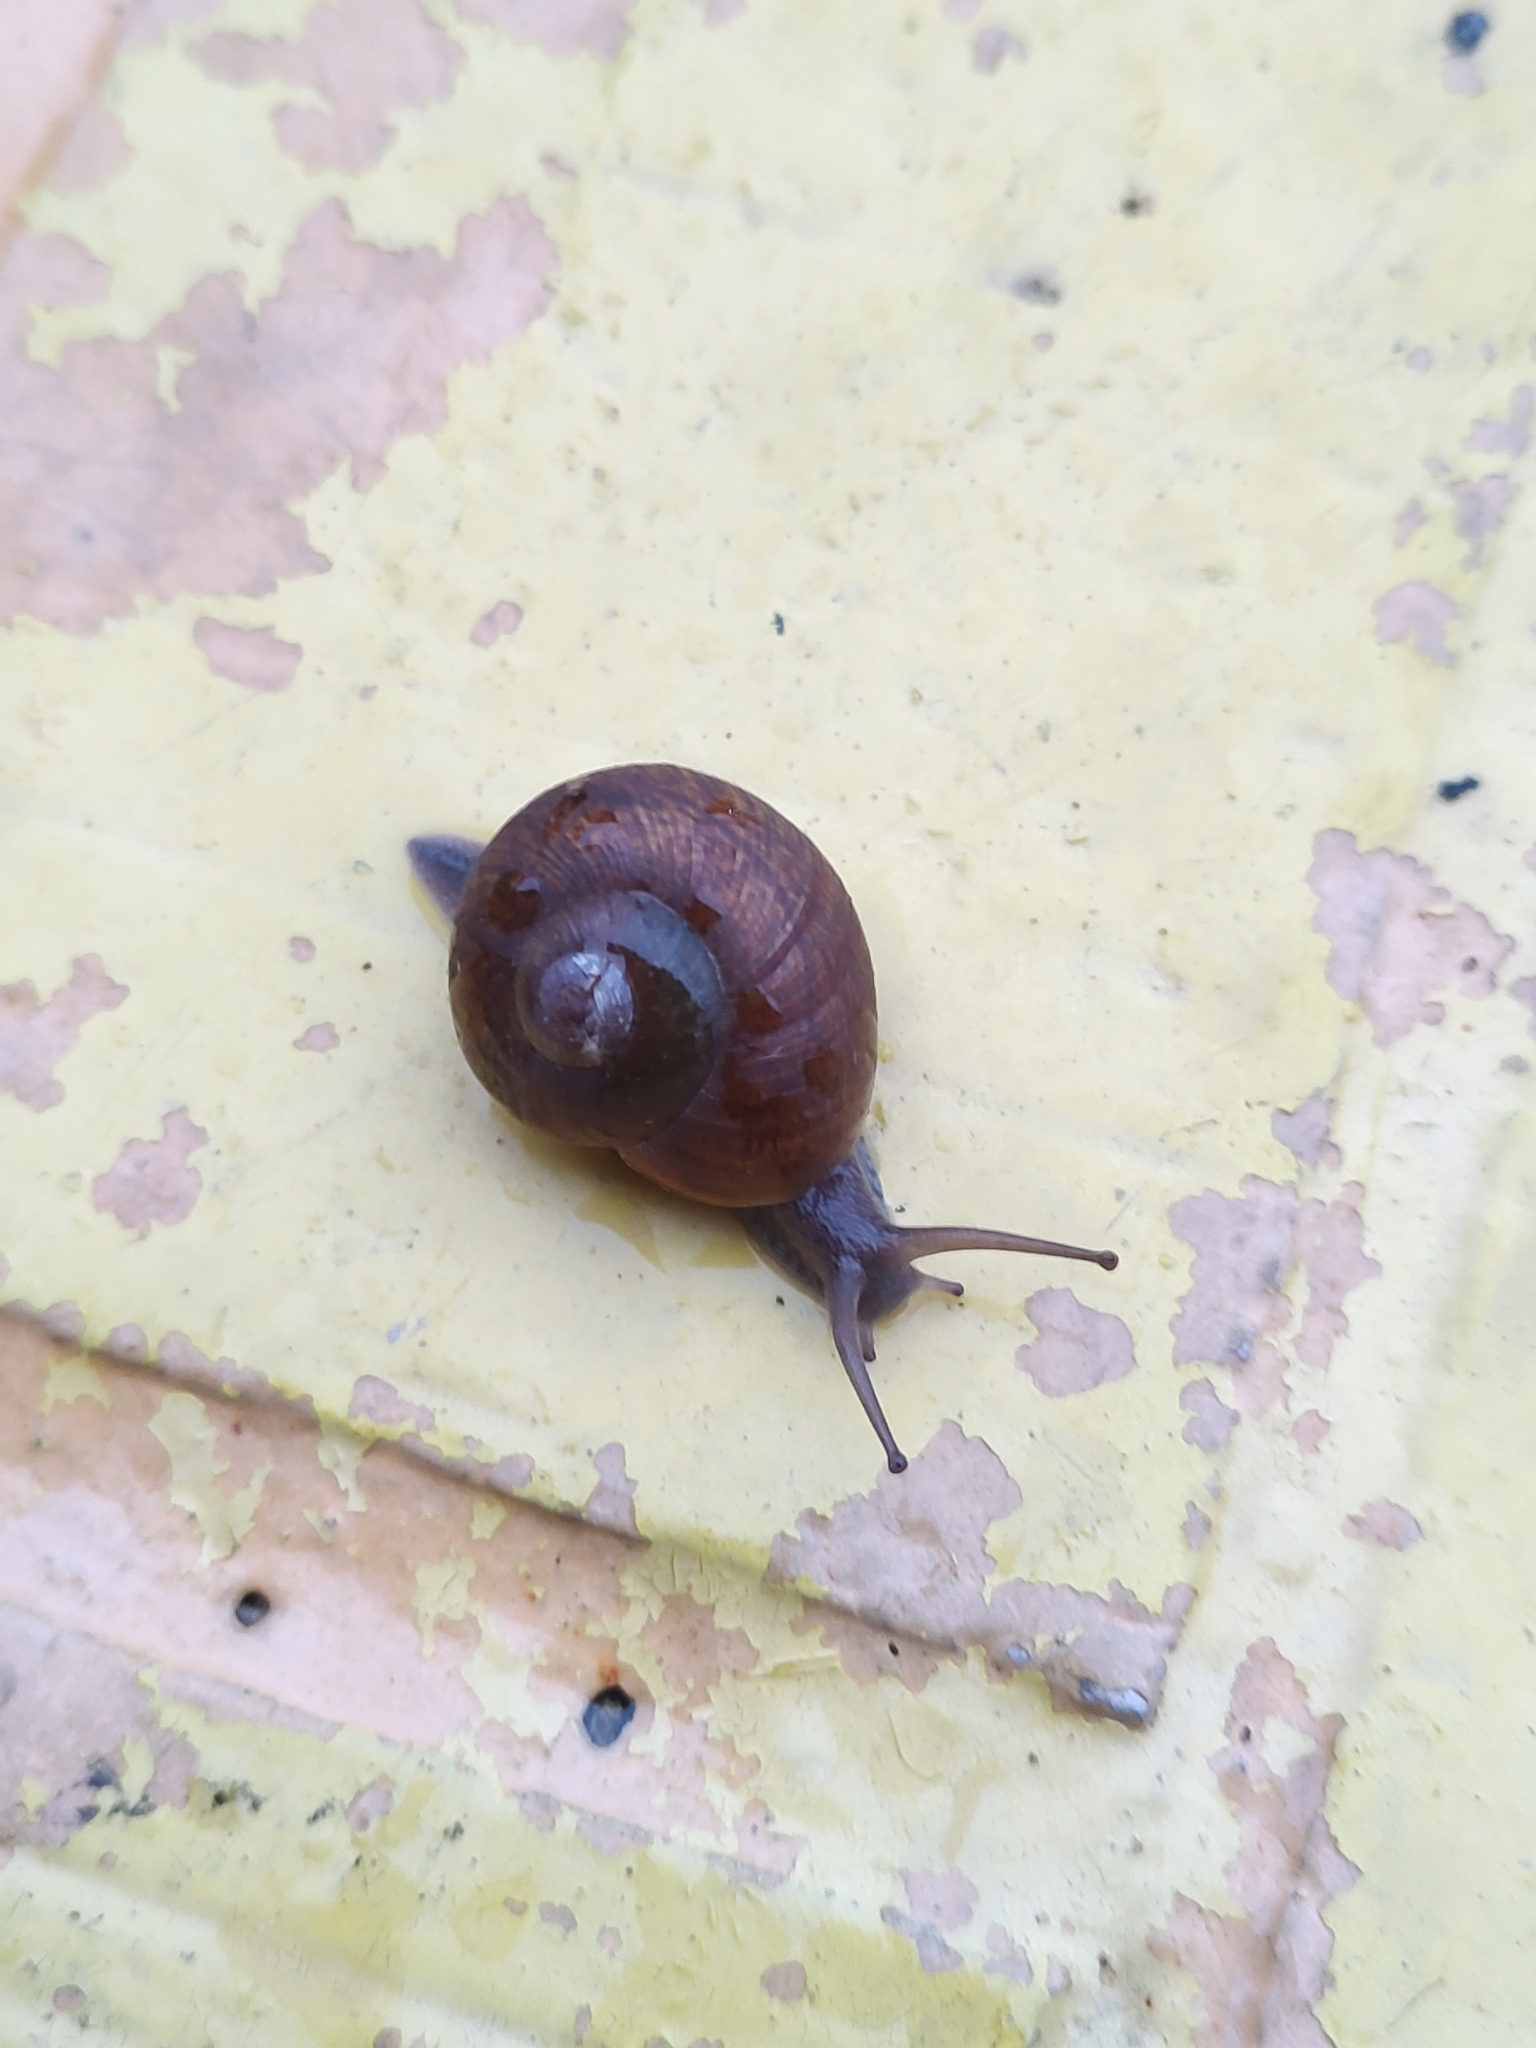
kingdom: Animalia
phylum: Mollusca
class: Gastropoda
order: Stylommatophora
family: Zachrysiidae
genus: Zachrysia
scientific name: Zachrysia provisoria
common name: Garden zachrysia
